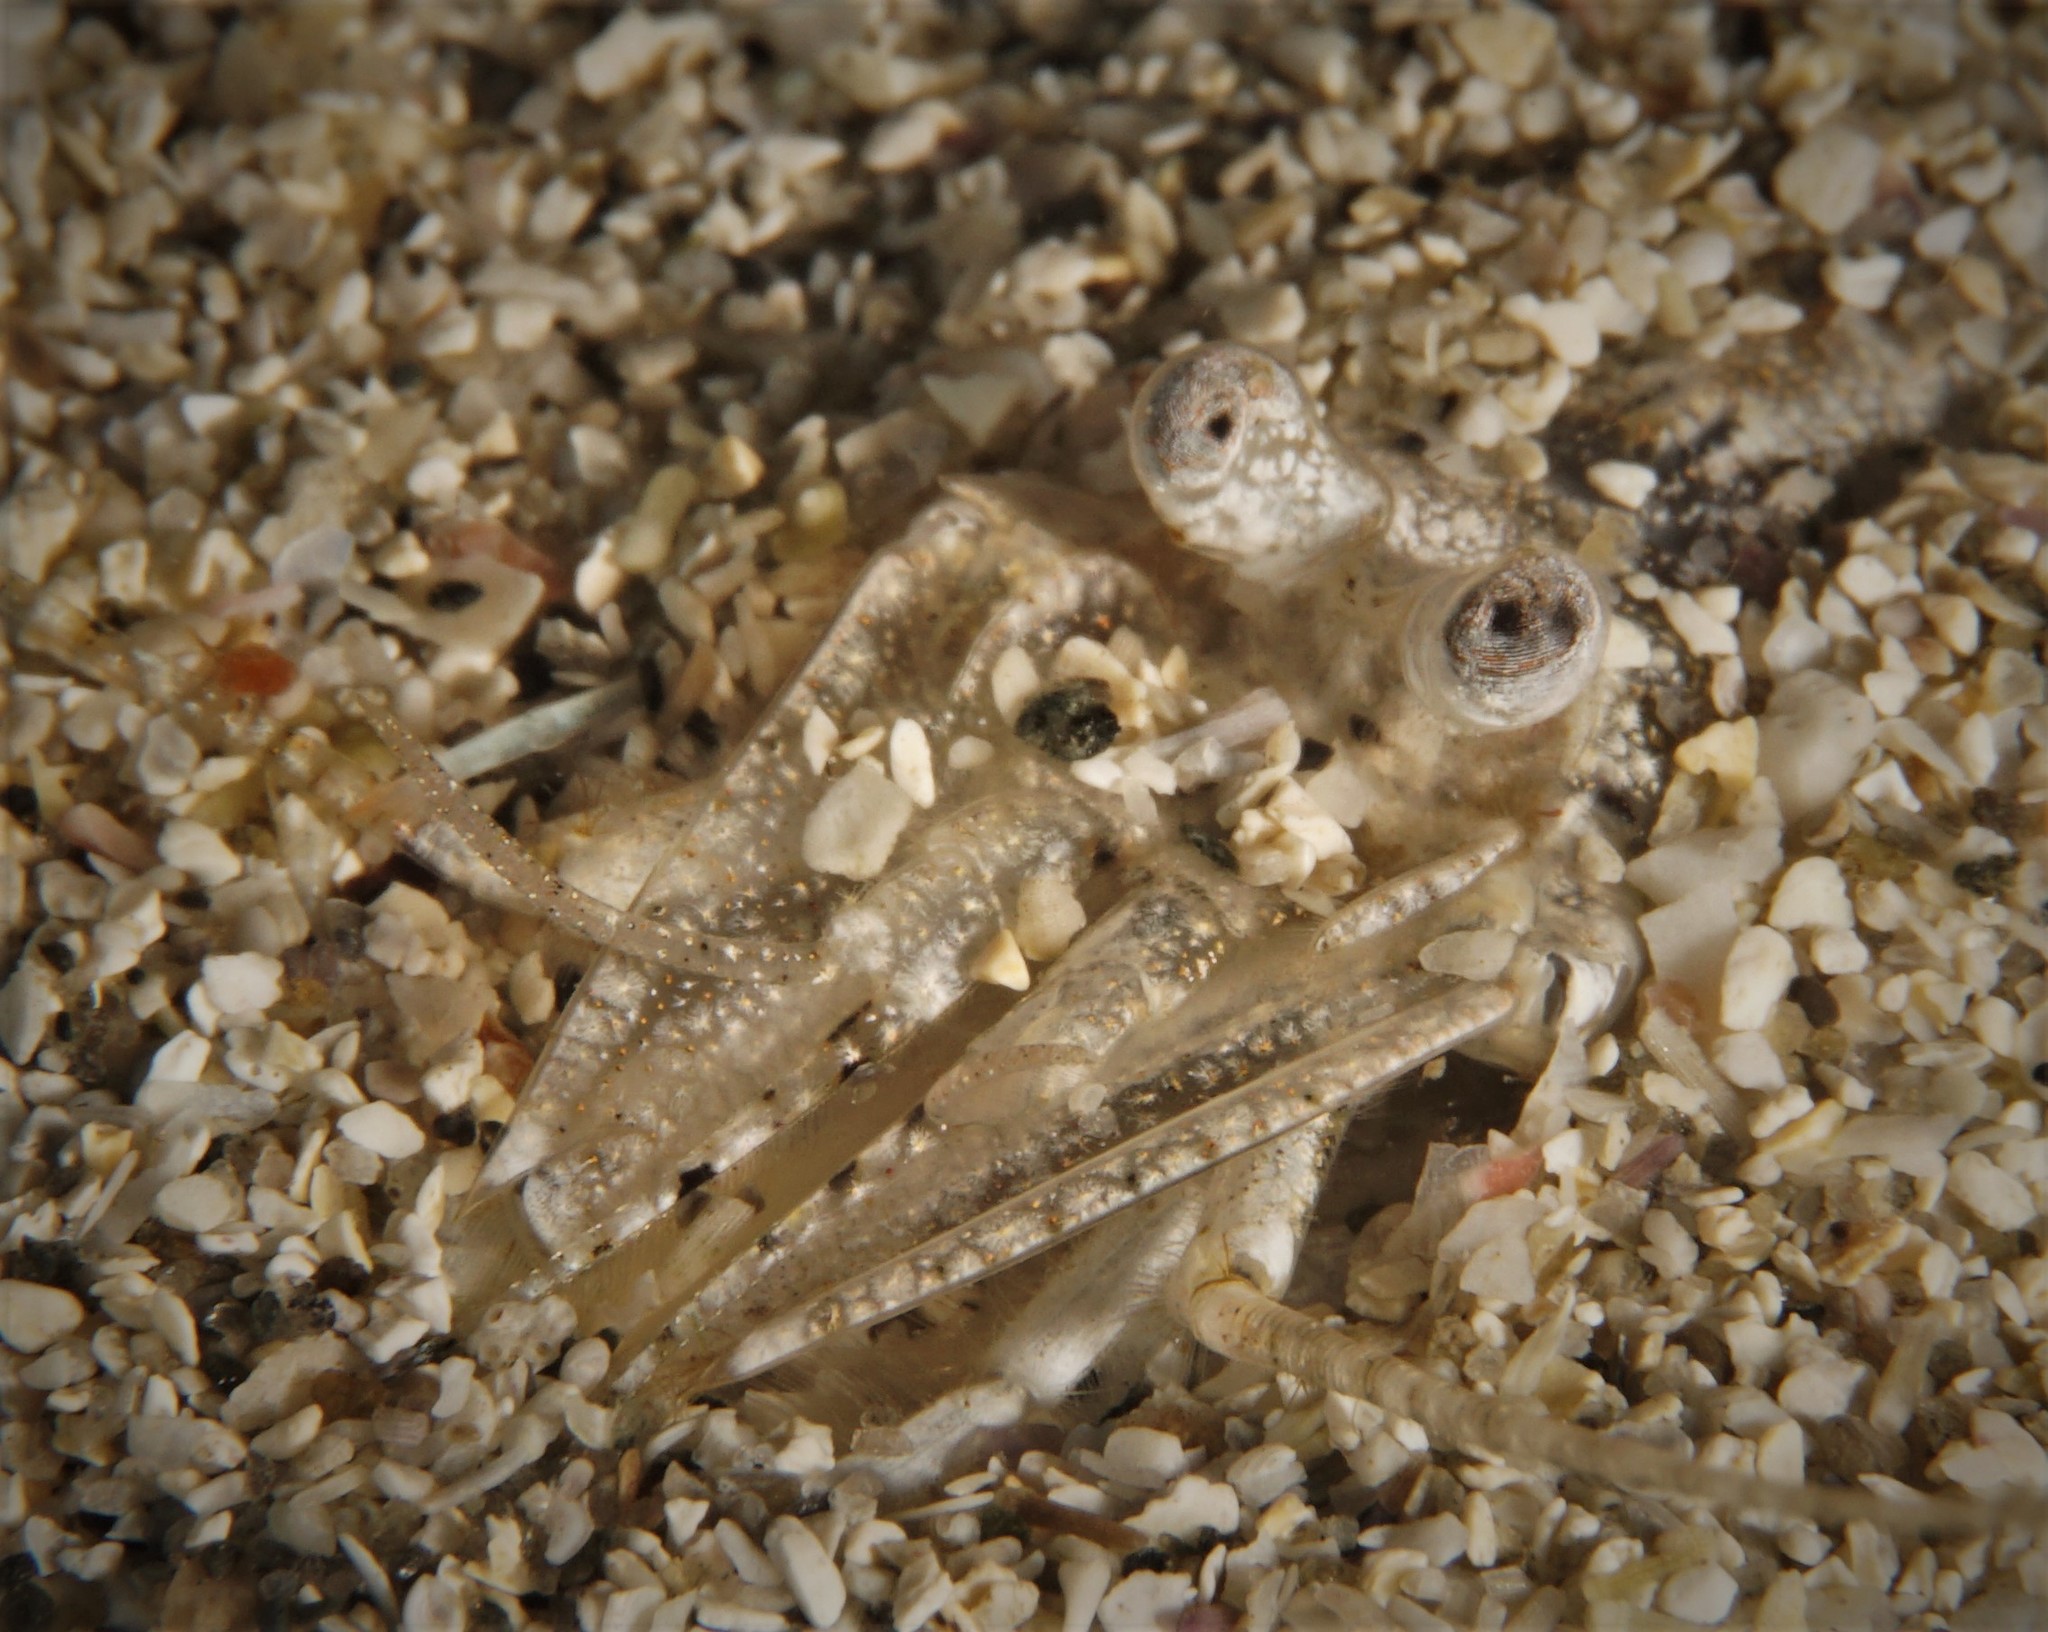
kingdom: Animalia
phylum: Arthropoda
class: Malacostraca
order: Decapoda
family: Crangonidae
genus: Crangon
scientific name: Crangon crangon
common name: Brown shrimp
